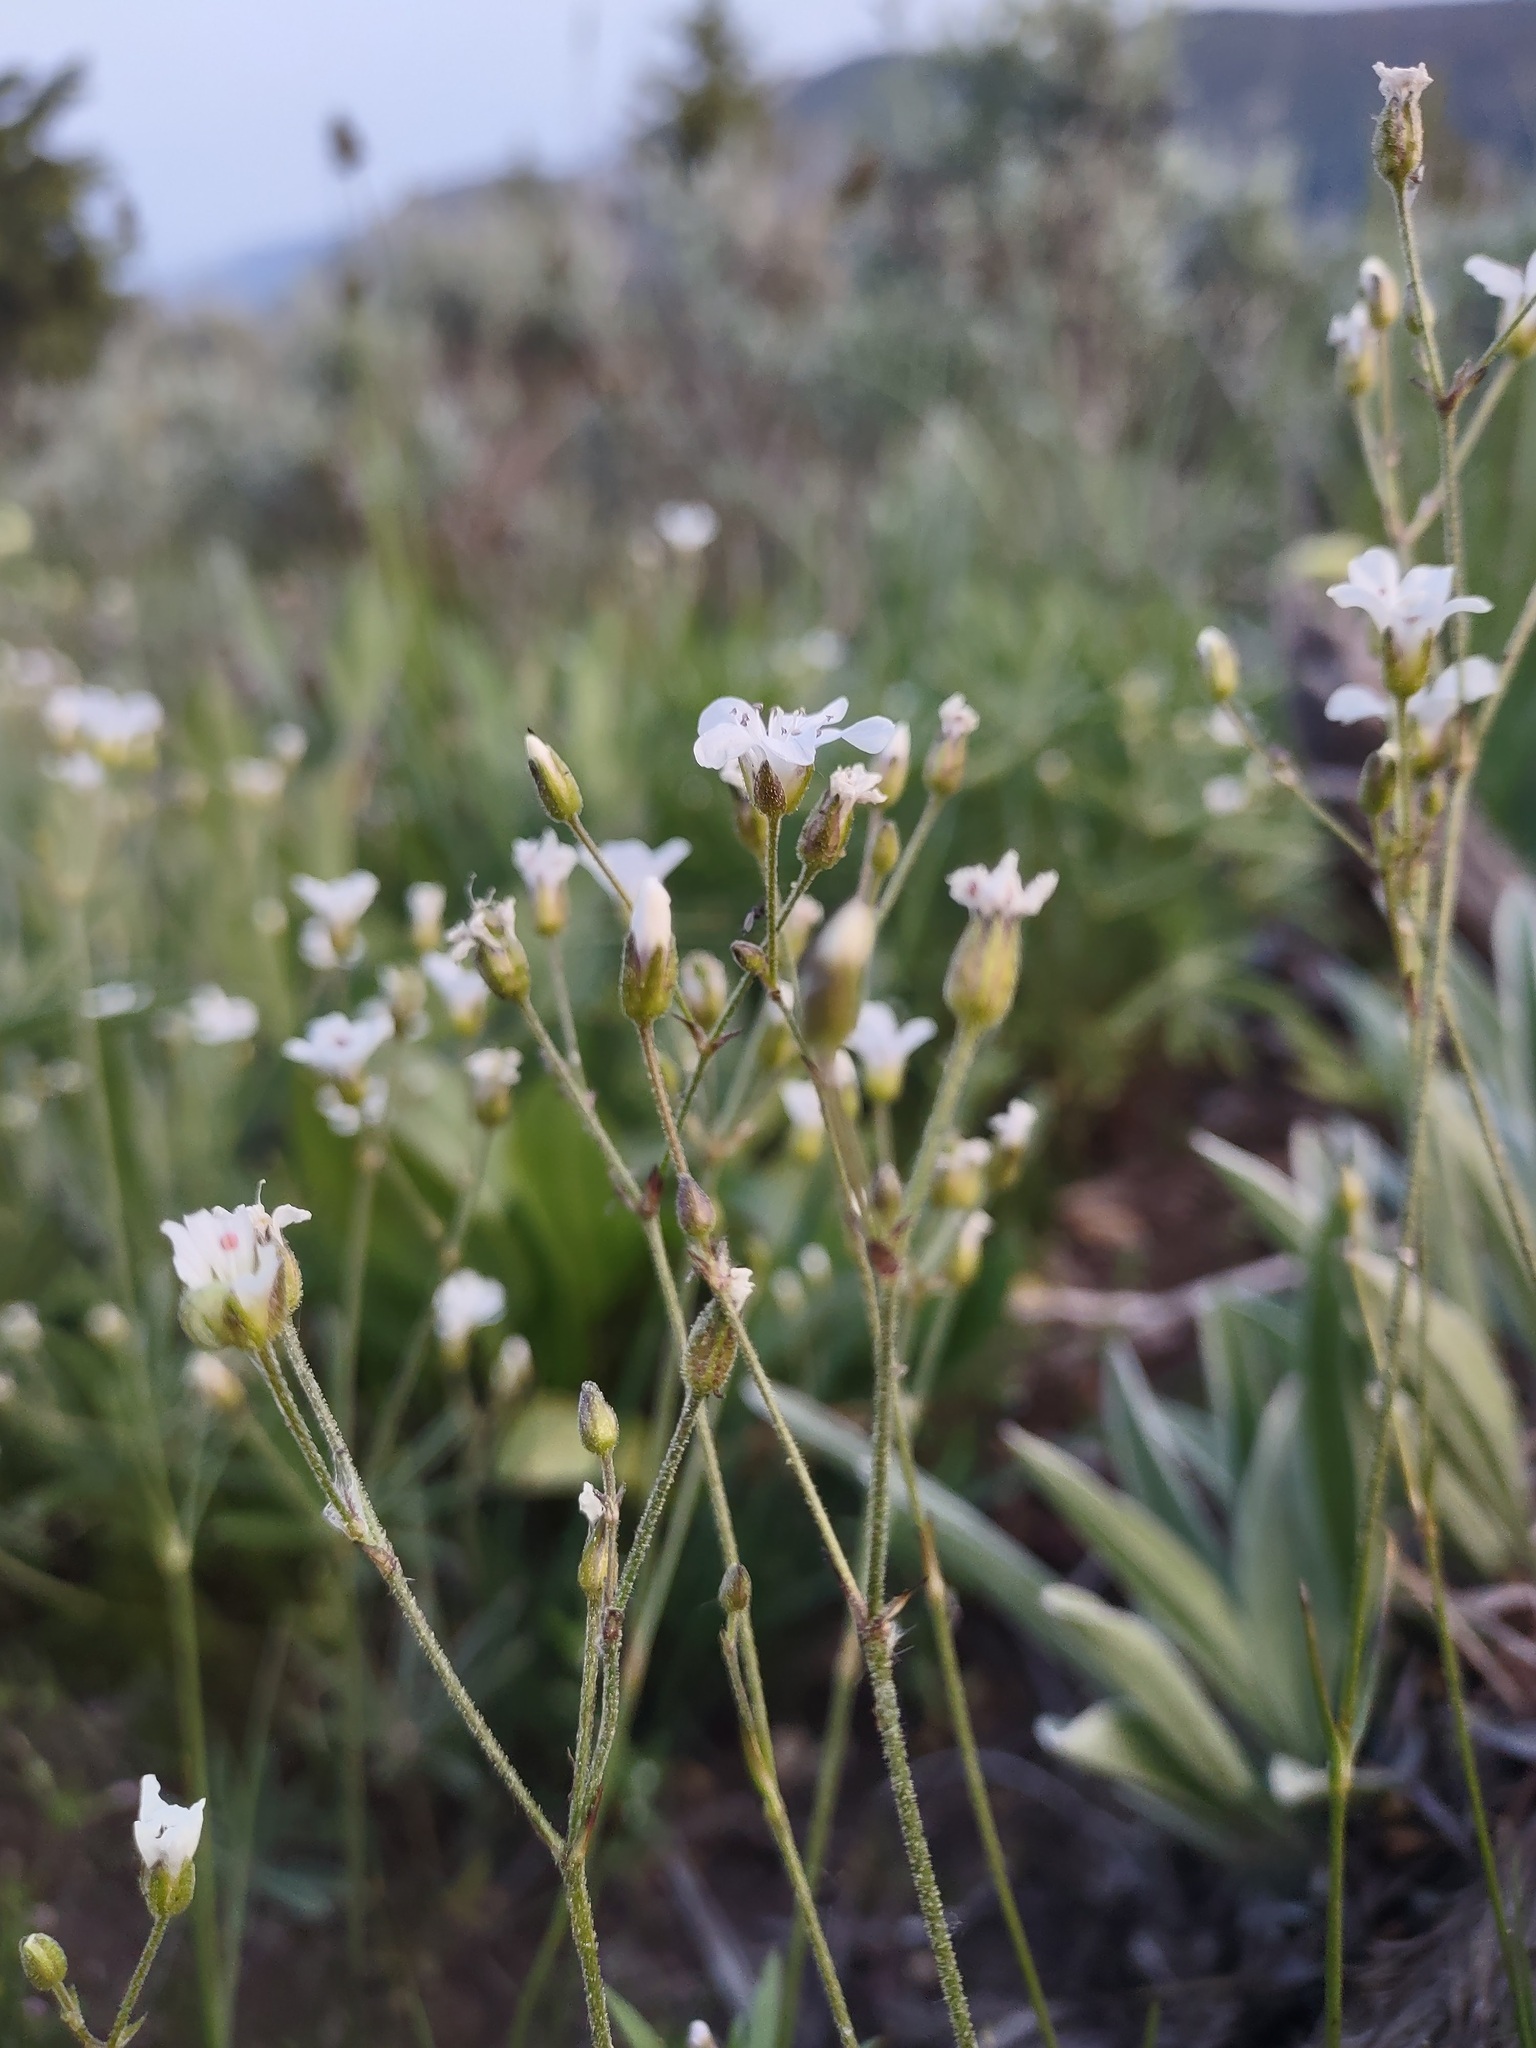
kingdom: Plantae
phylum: Tracheophyta
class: Magnoliopsida
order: Caryophyllales
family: Caryophyllaceae
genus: Eremogone
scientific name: Eremogone capillaris
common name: Slender mountain sandwort
